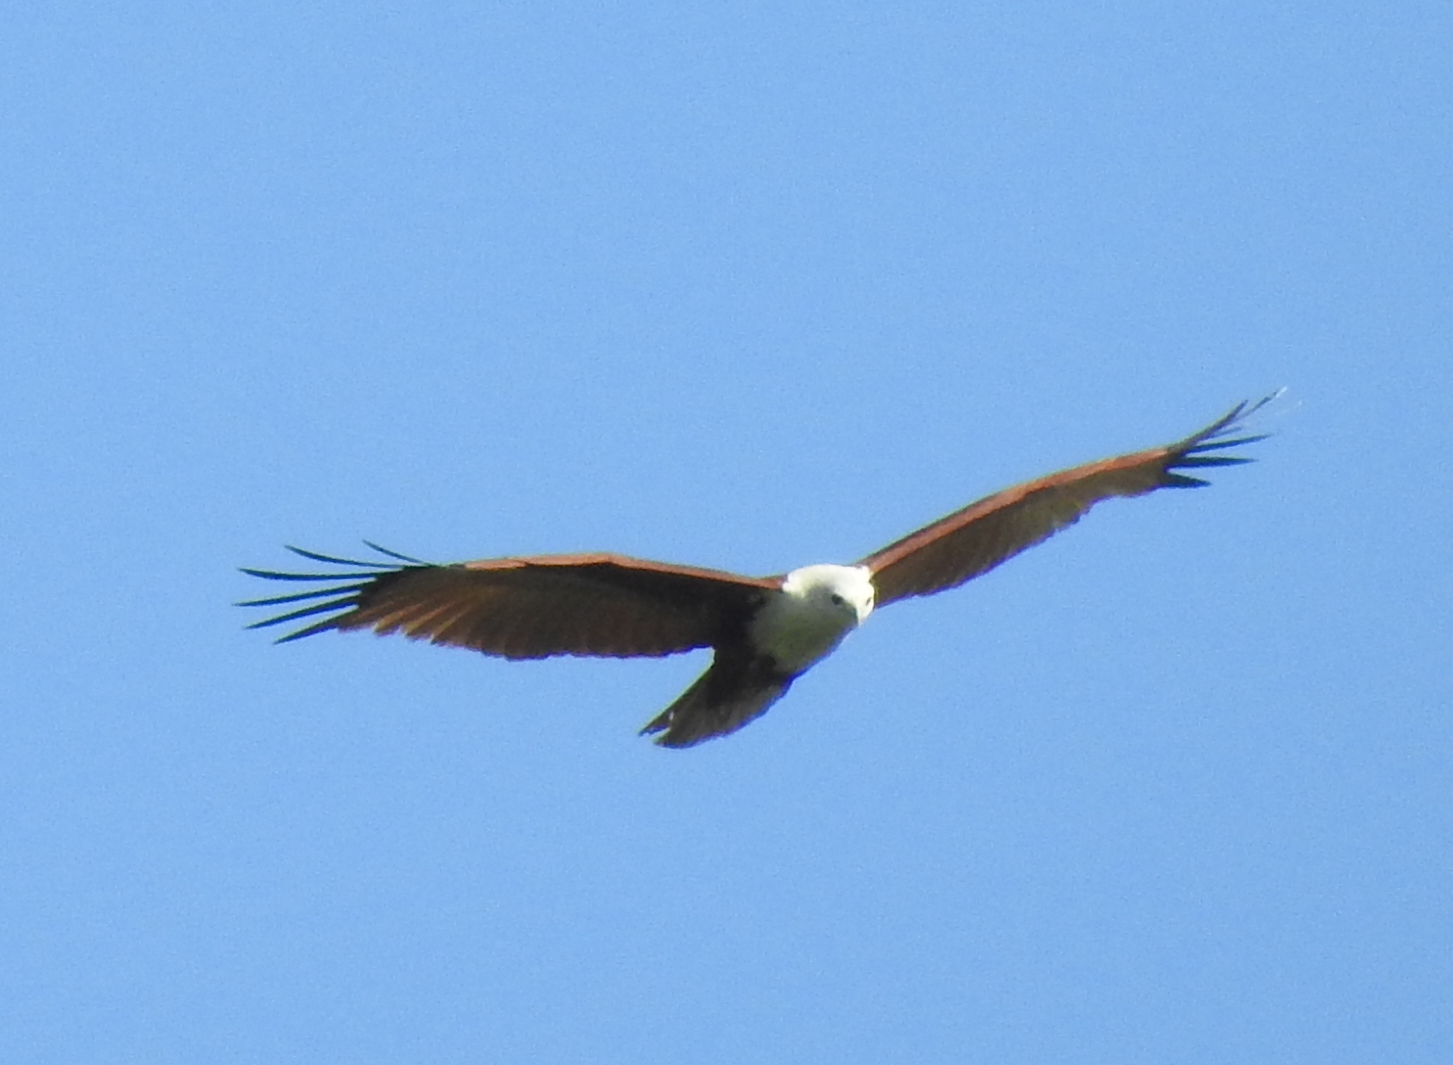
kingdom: Animalia
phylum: Chordata
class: Aves
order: Accipitriformes
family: Accipitridae
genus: Haliastur
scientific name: Haliastur indus
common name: Brahminy kite
